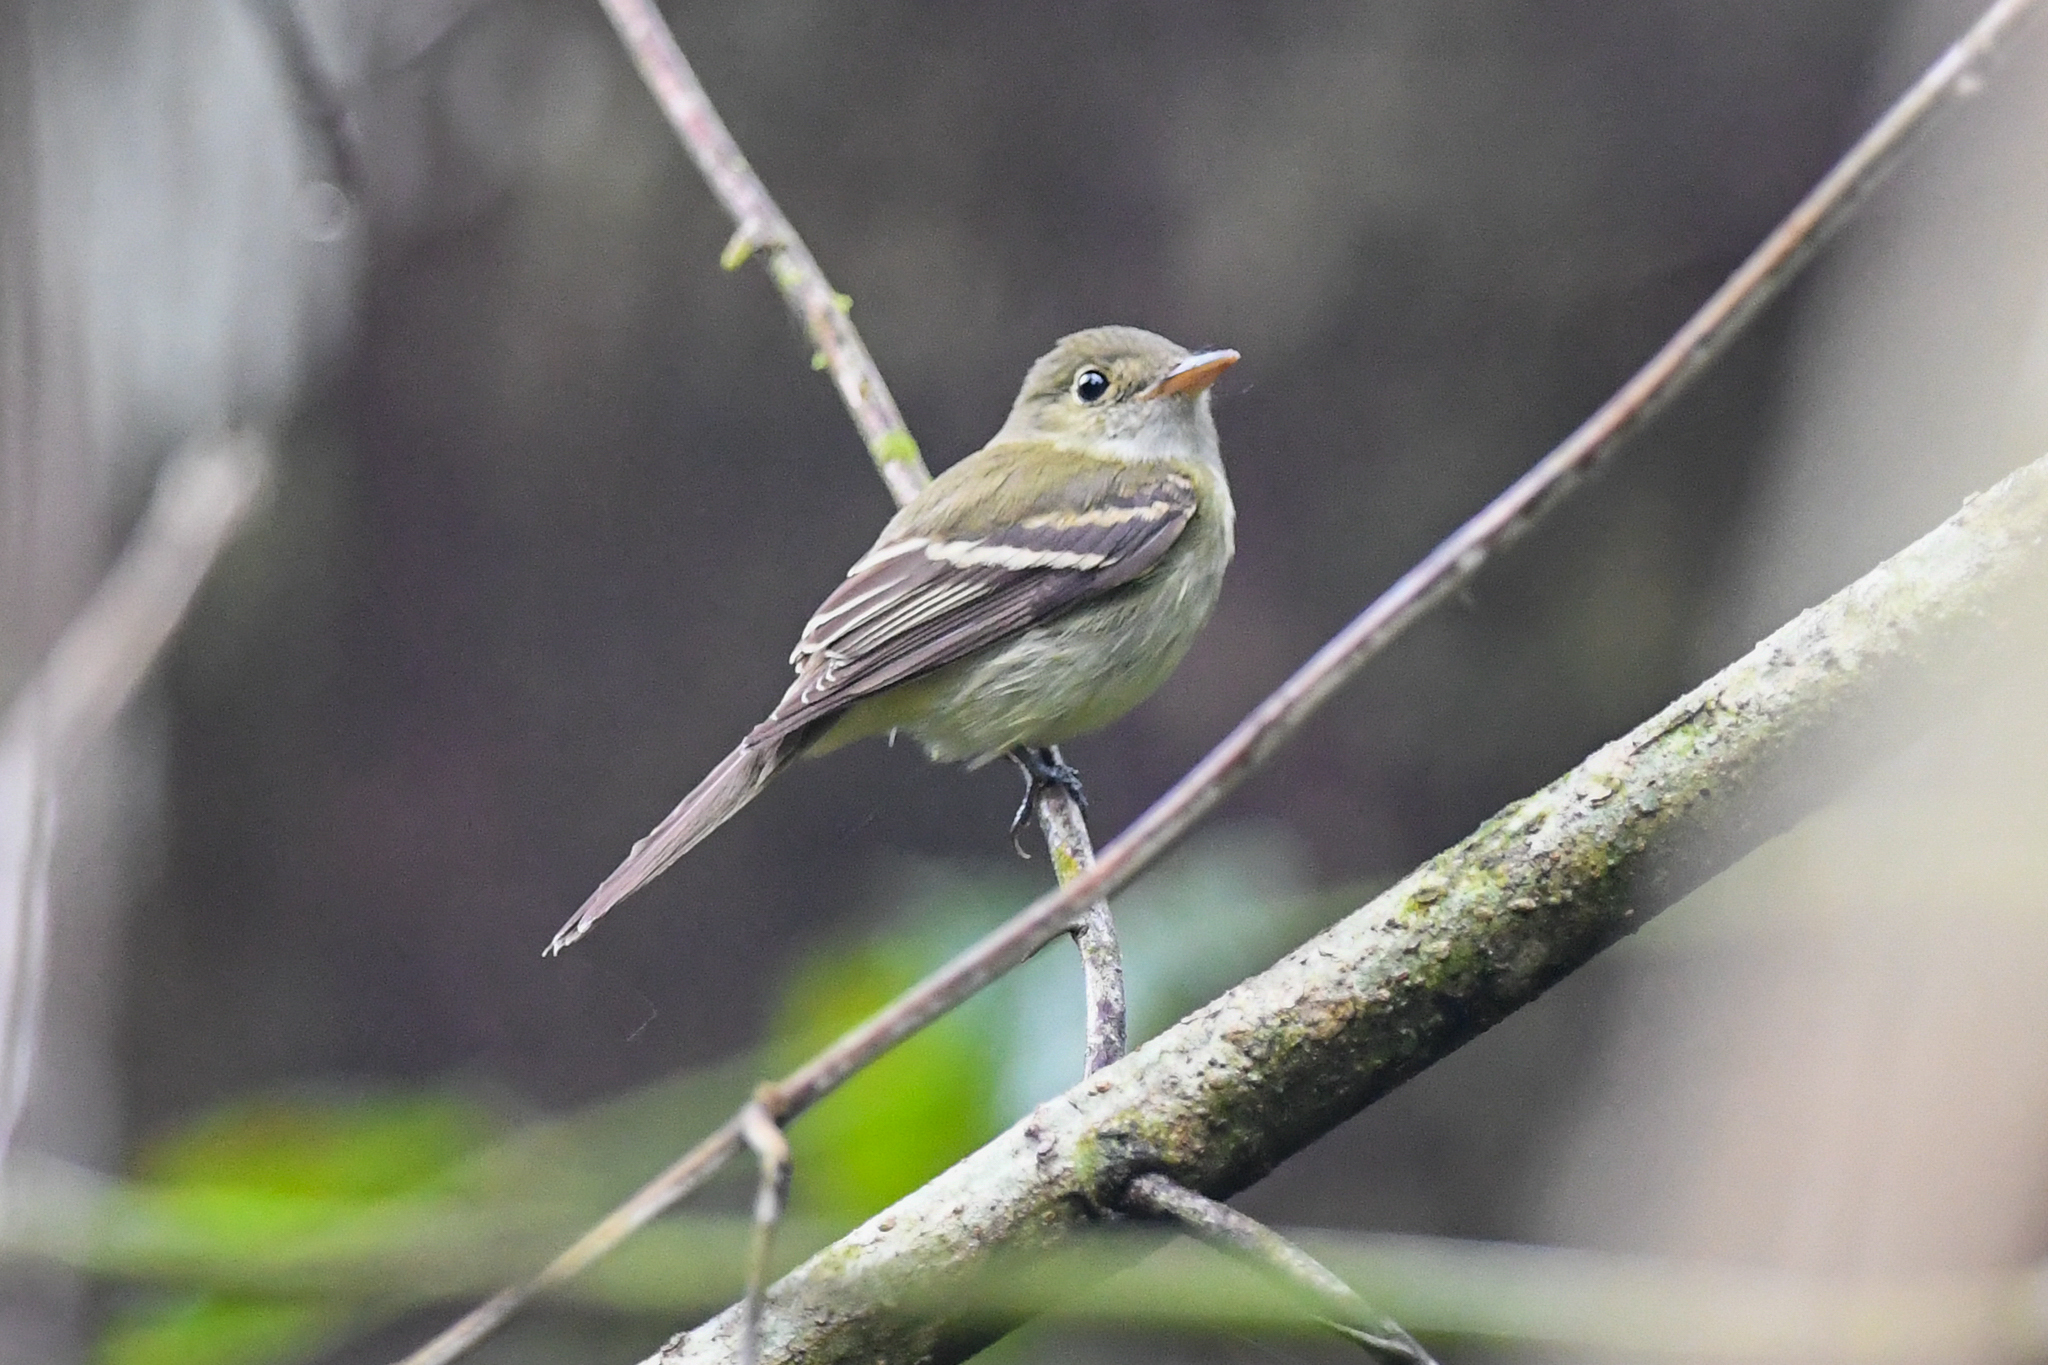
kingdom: Animalia
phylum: Chordata
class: Aves
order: Passeriformes
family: Tyrannidae
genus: Empidonax
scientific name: Empidonax flaviventris
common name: Yellow-bellied flycatcher
